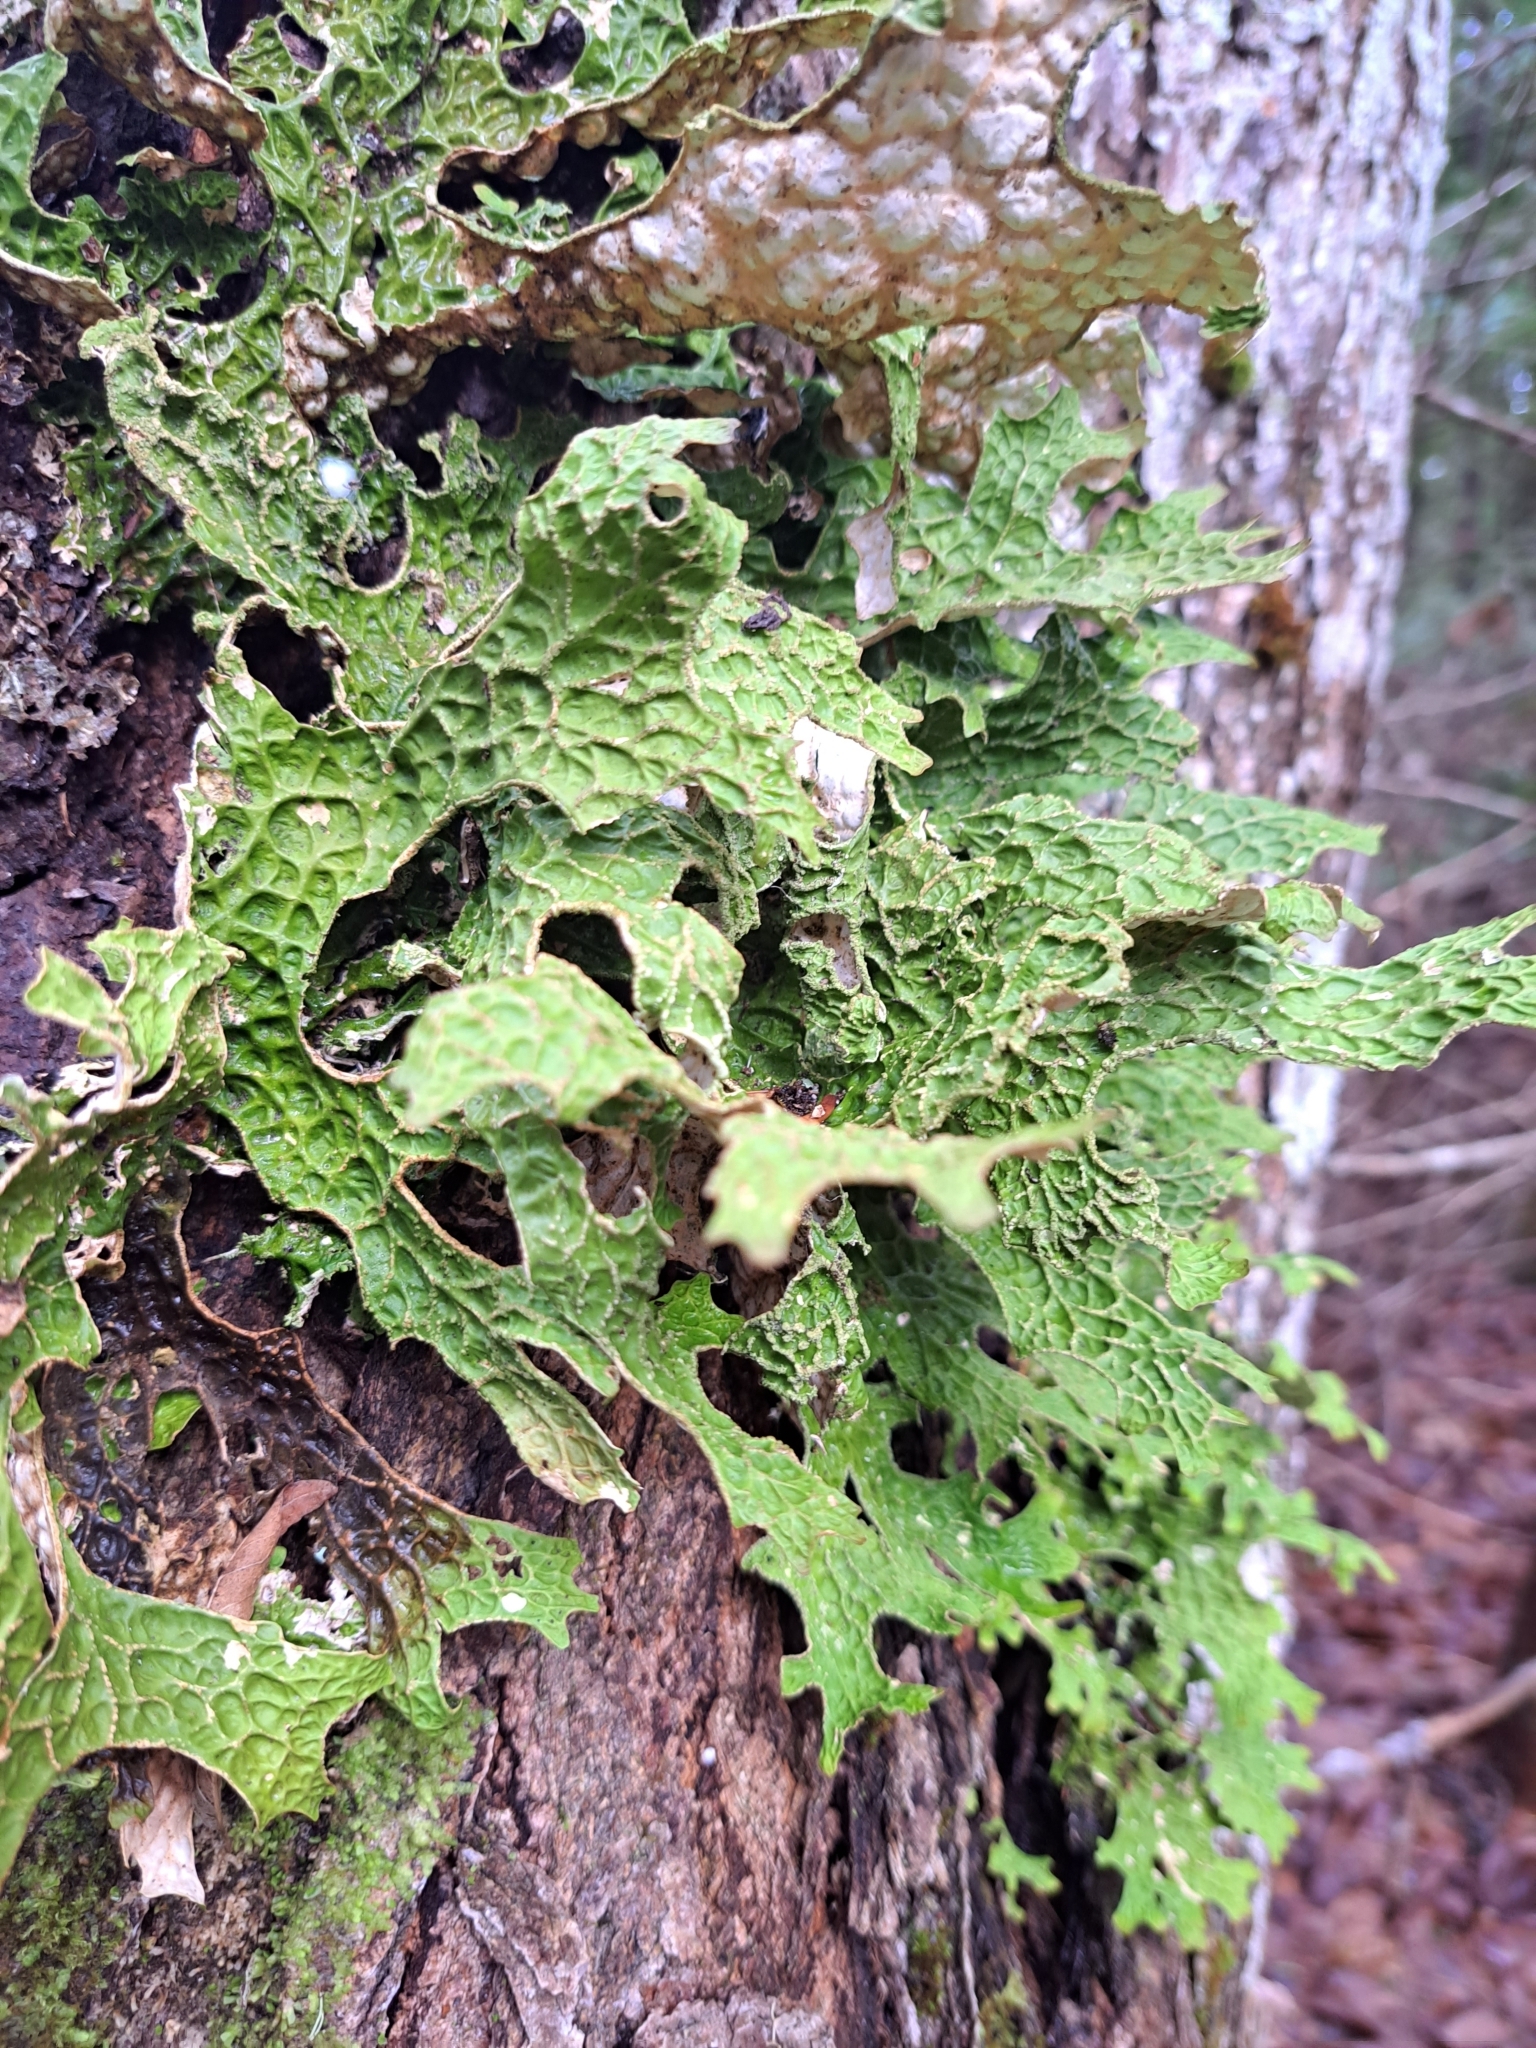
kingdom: Fungi
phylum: Ascomycota
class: Lecanoromycetes
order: Peltigerales
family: Lobariaceae
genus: Lobaria
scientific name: Lobaria pulmonaria
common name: Lungwort
